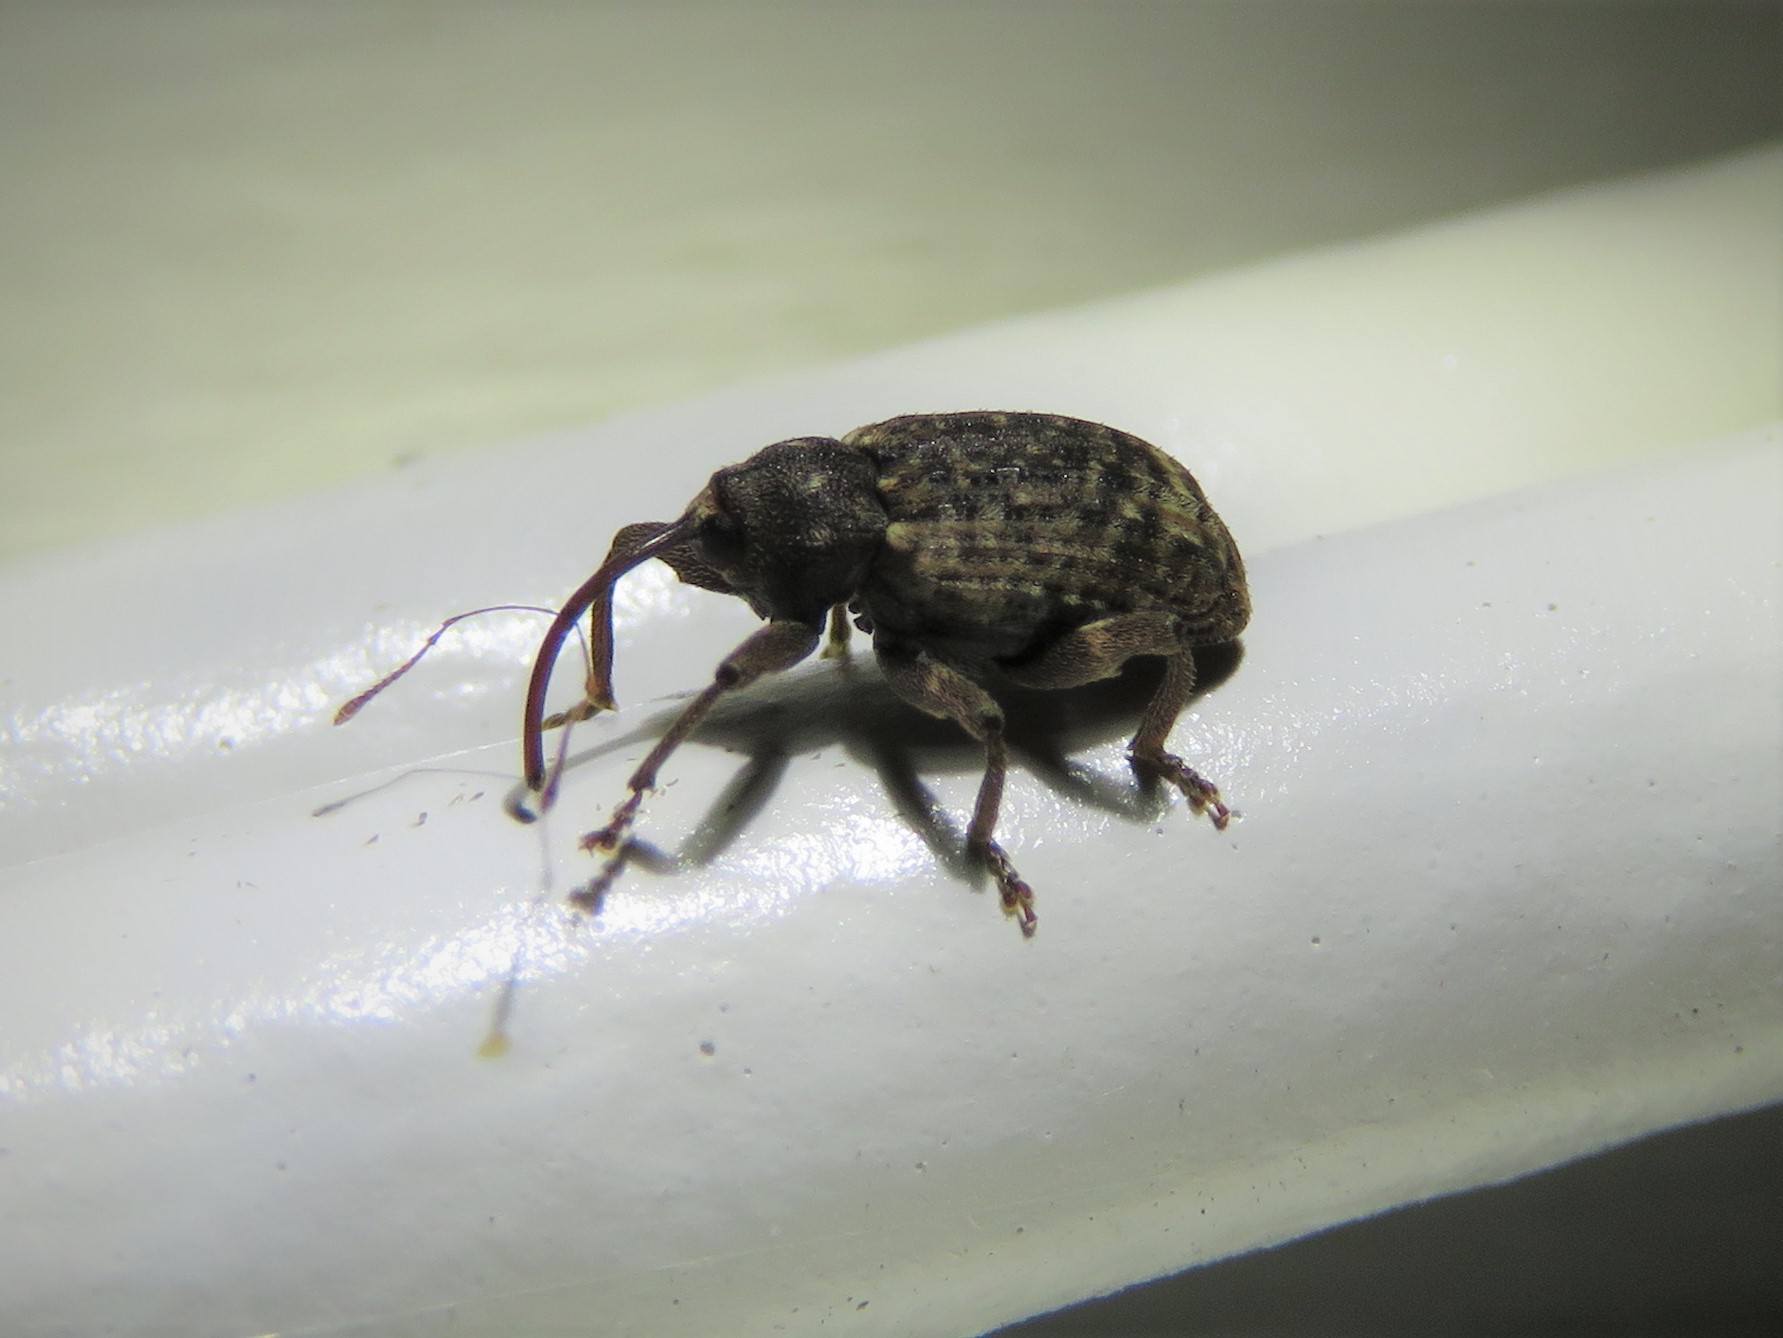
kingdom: Animalia
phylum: Arthropoda
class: Insecta
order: Coleoptera
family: Curculionidae
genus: Conotrachelus
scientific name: Conotrachelus naso
